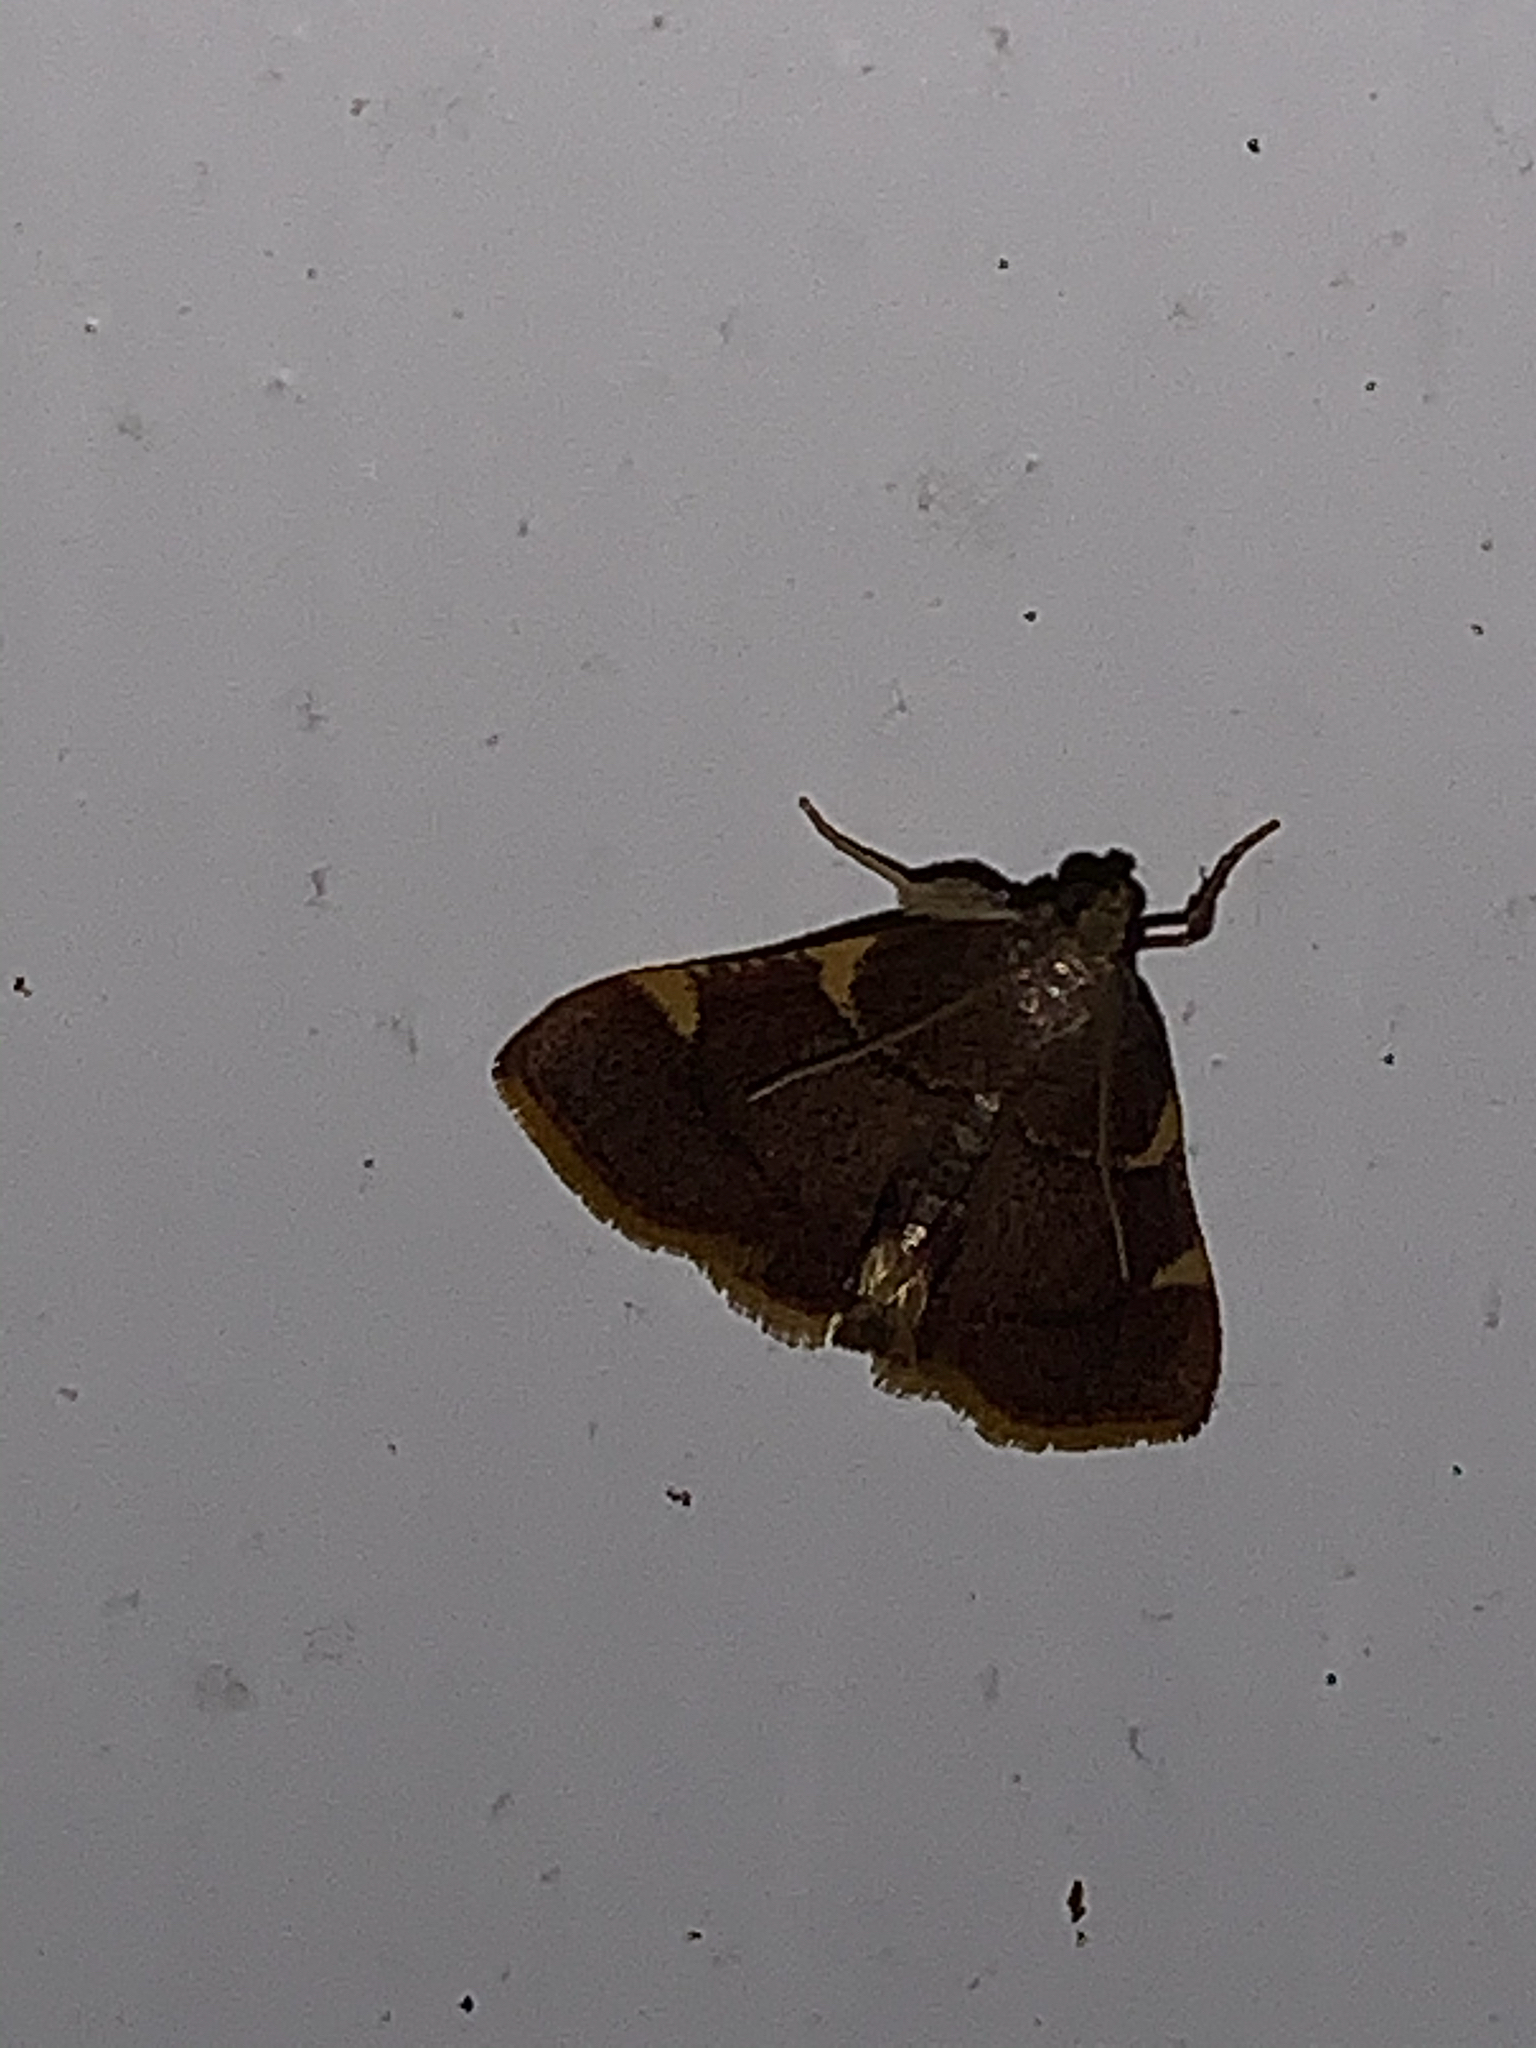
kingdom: Animalia
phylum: Arthropoda
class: Insecta
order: Lepidoptera
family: Pyralidae
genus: Hypsopygia
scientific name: Hypsopygia olinalis
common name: Yellow-fringed dolichomia moth
